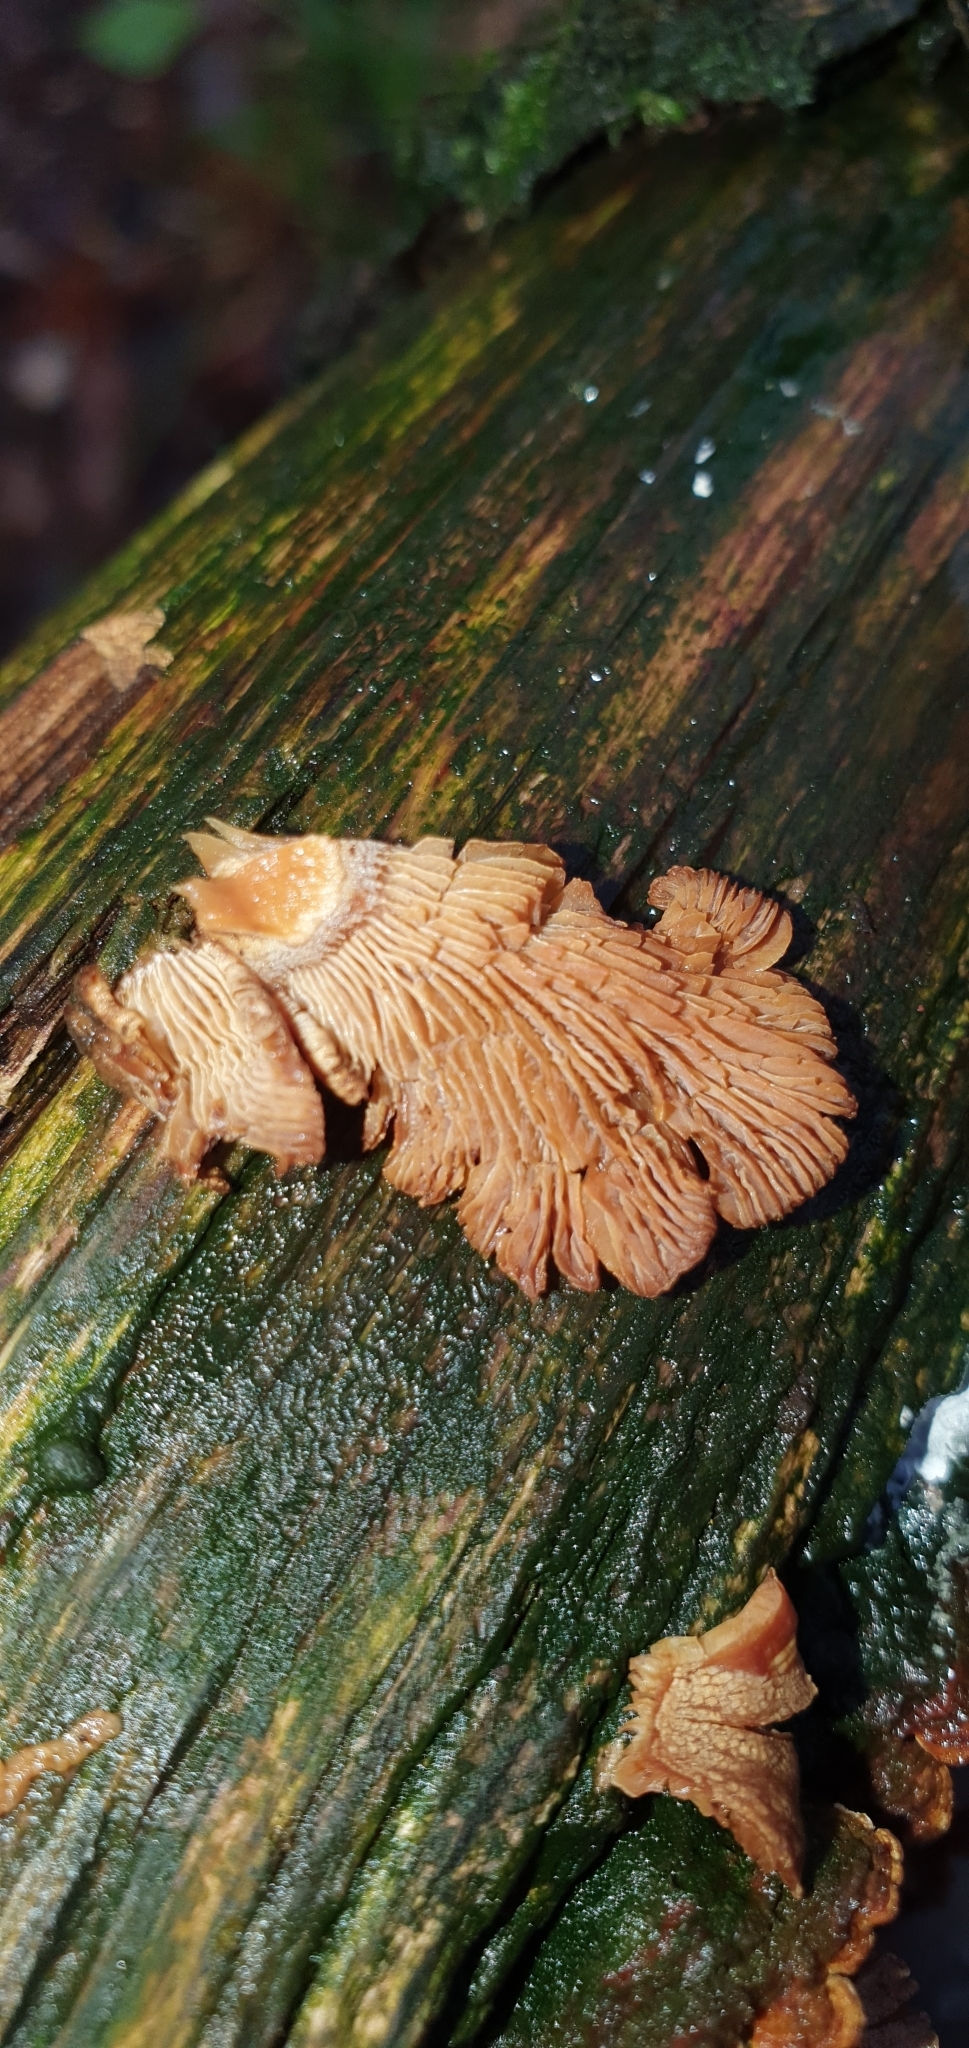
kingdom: Fungi
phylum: Basidiomycota
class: Agaricomycetes
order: Agaricales
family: Mycenaceae
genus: Panellus
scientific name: Panellus stipticus
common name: Bitter oysterling
